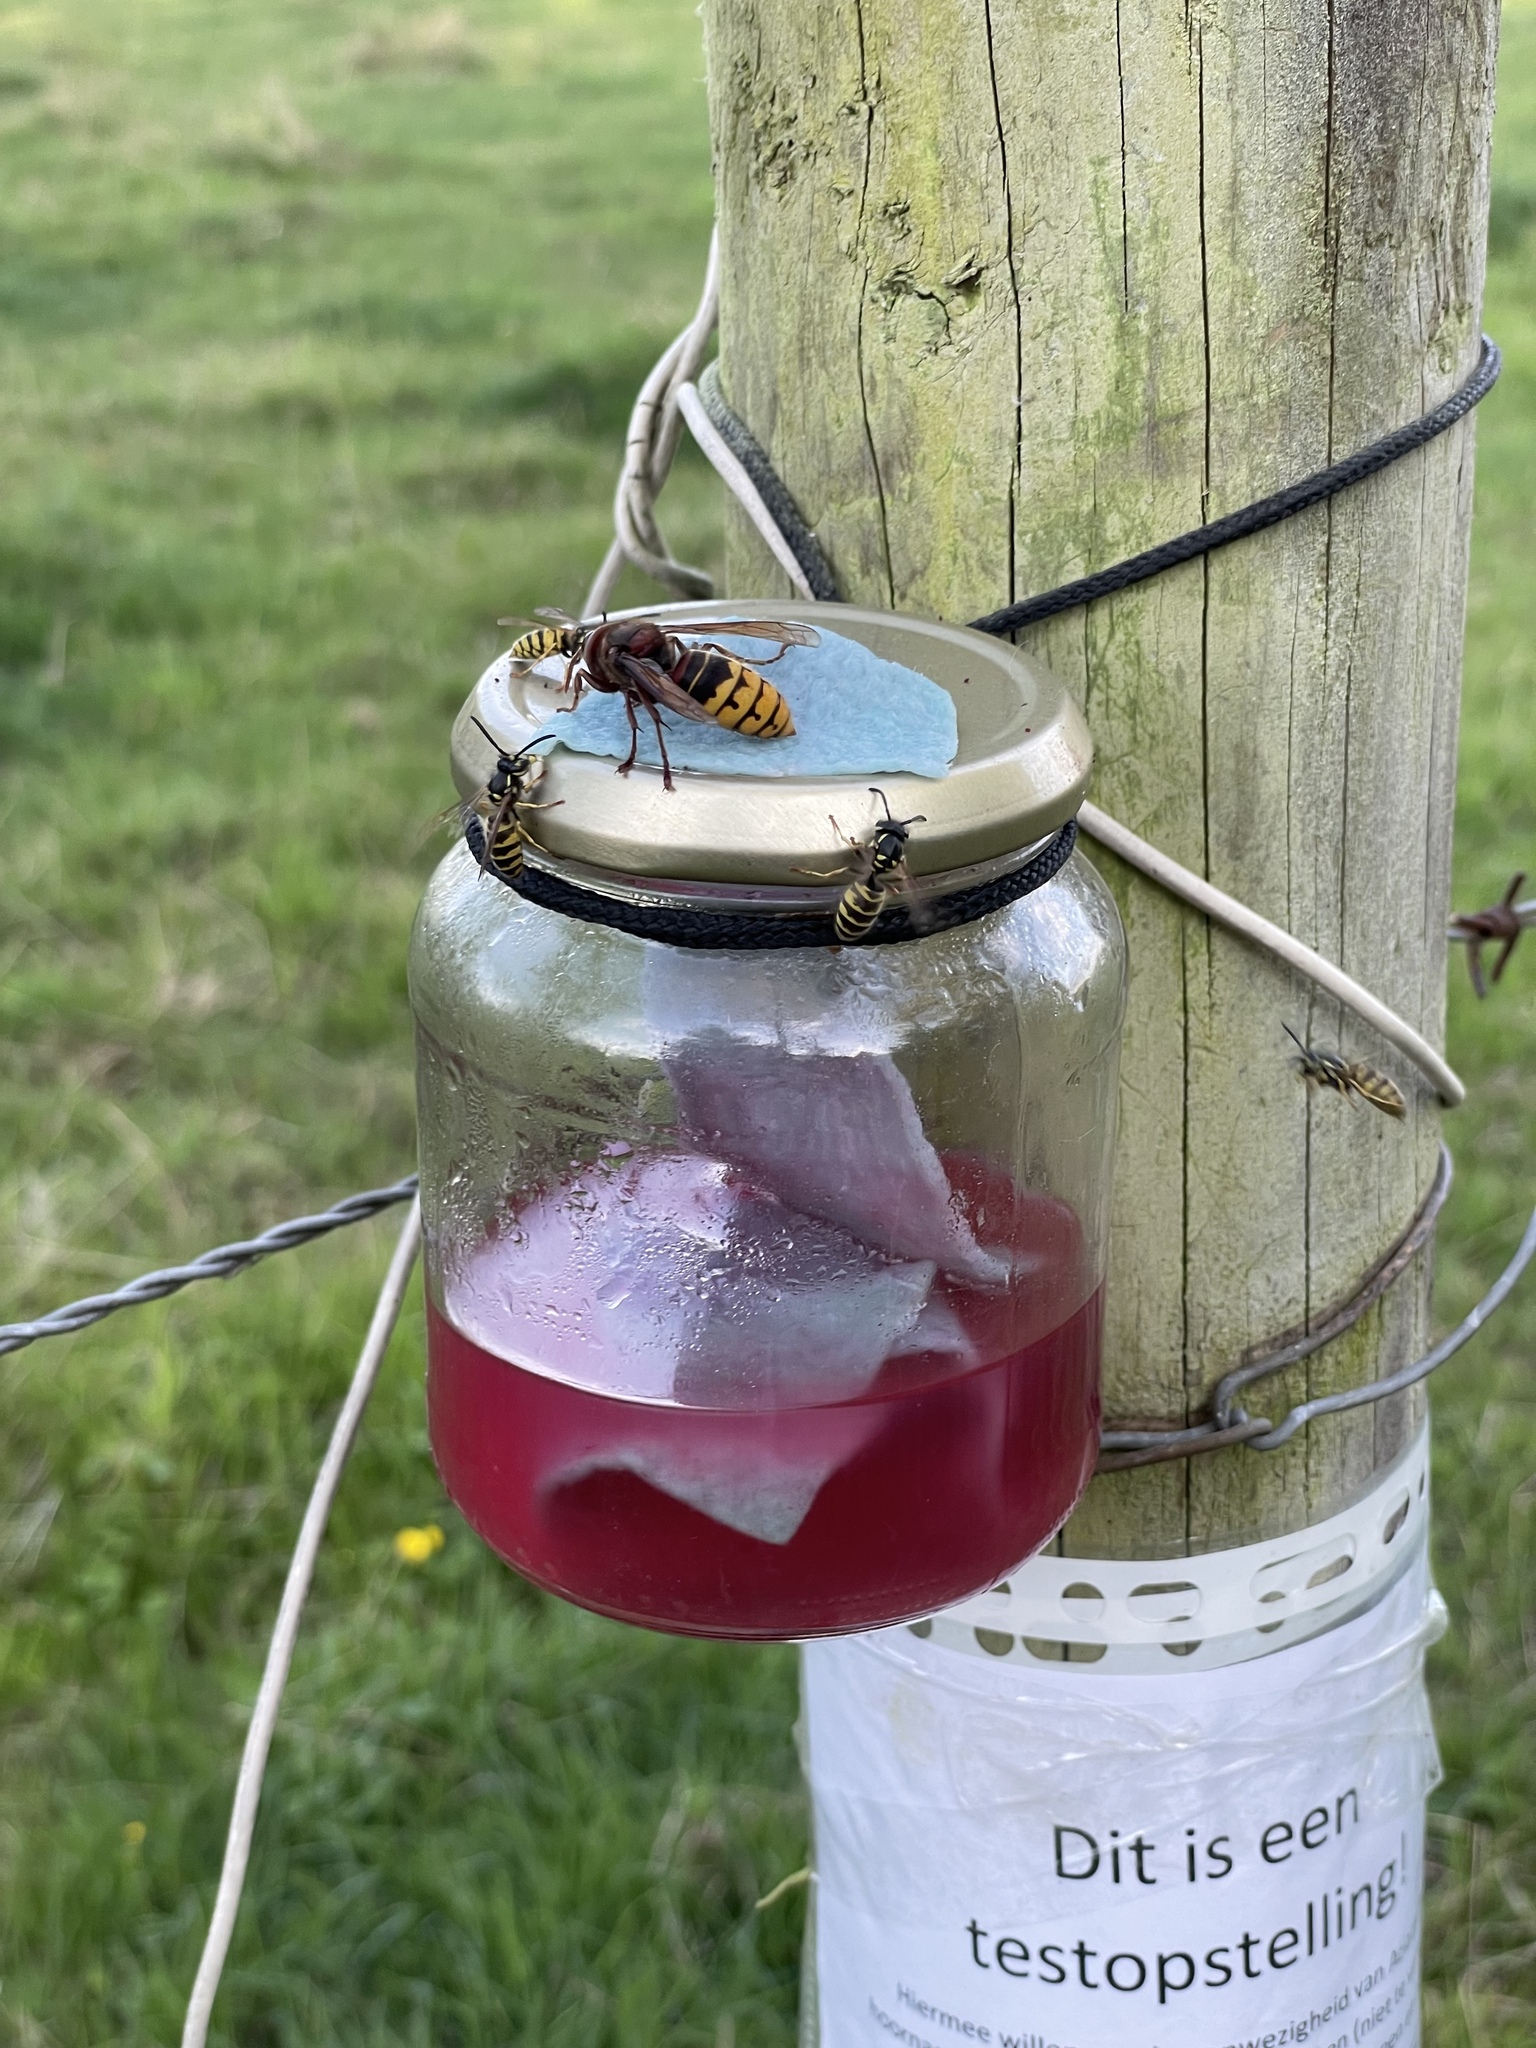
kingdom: Animalia
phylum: Arthropoda
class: Insecta
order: Hymenoptera
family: Vespidae
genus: Vespa
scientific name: Vespa crabro
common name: Hornet
